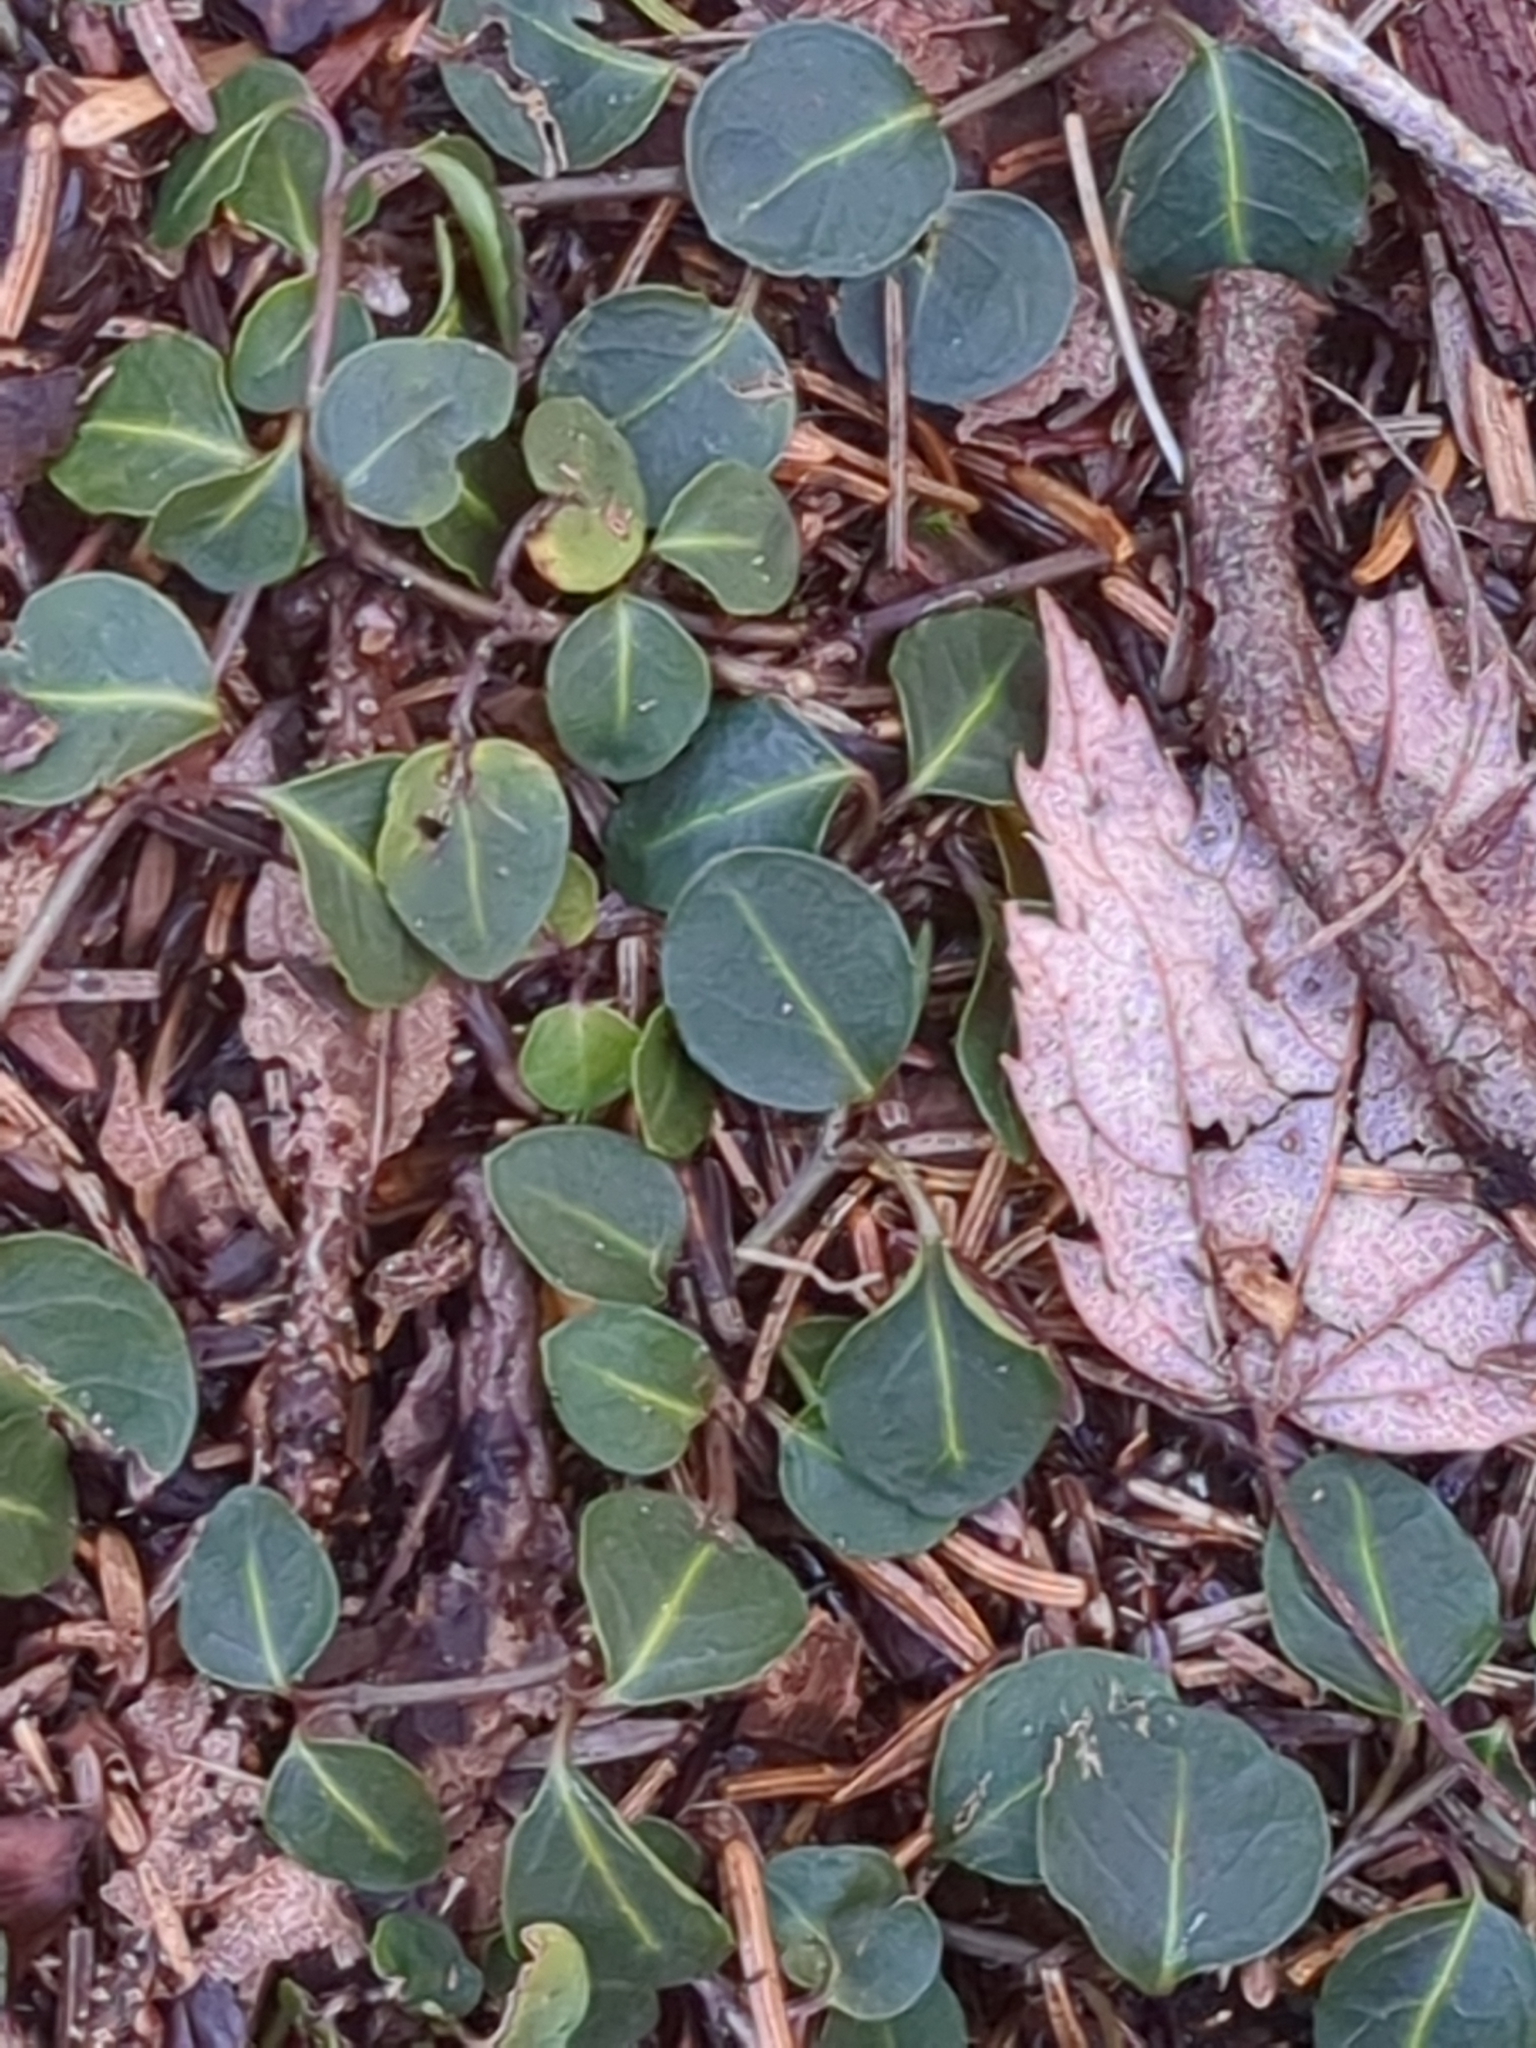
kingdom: Plantae
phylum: Tracheophyta
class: Magnoliopsida
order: Gentianales
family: Rubiaceae
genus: Mitchella
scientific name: Mitchella repens
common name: Partridge-berry
